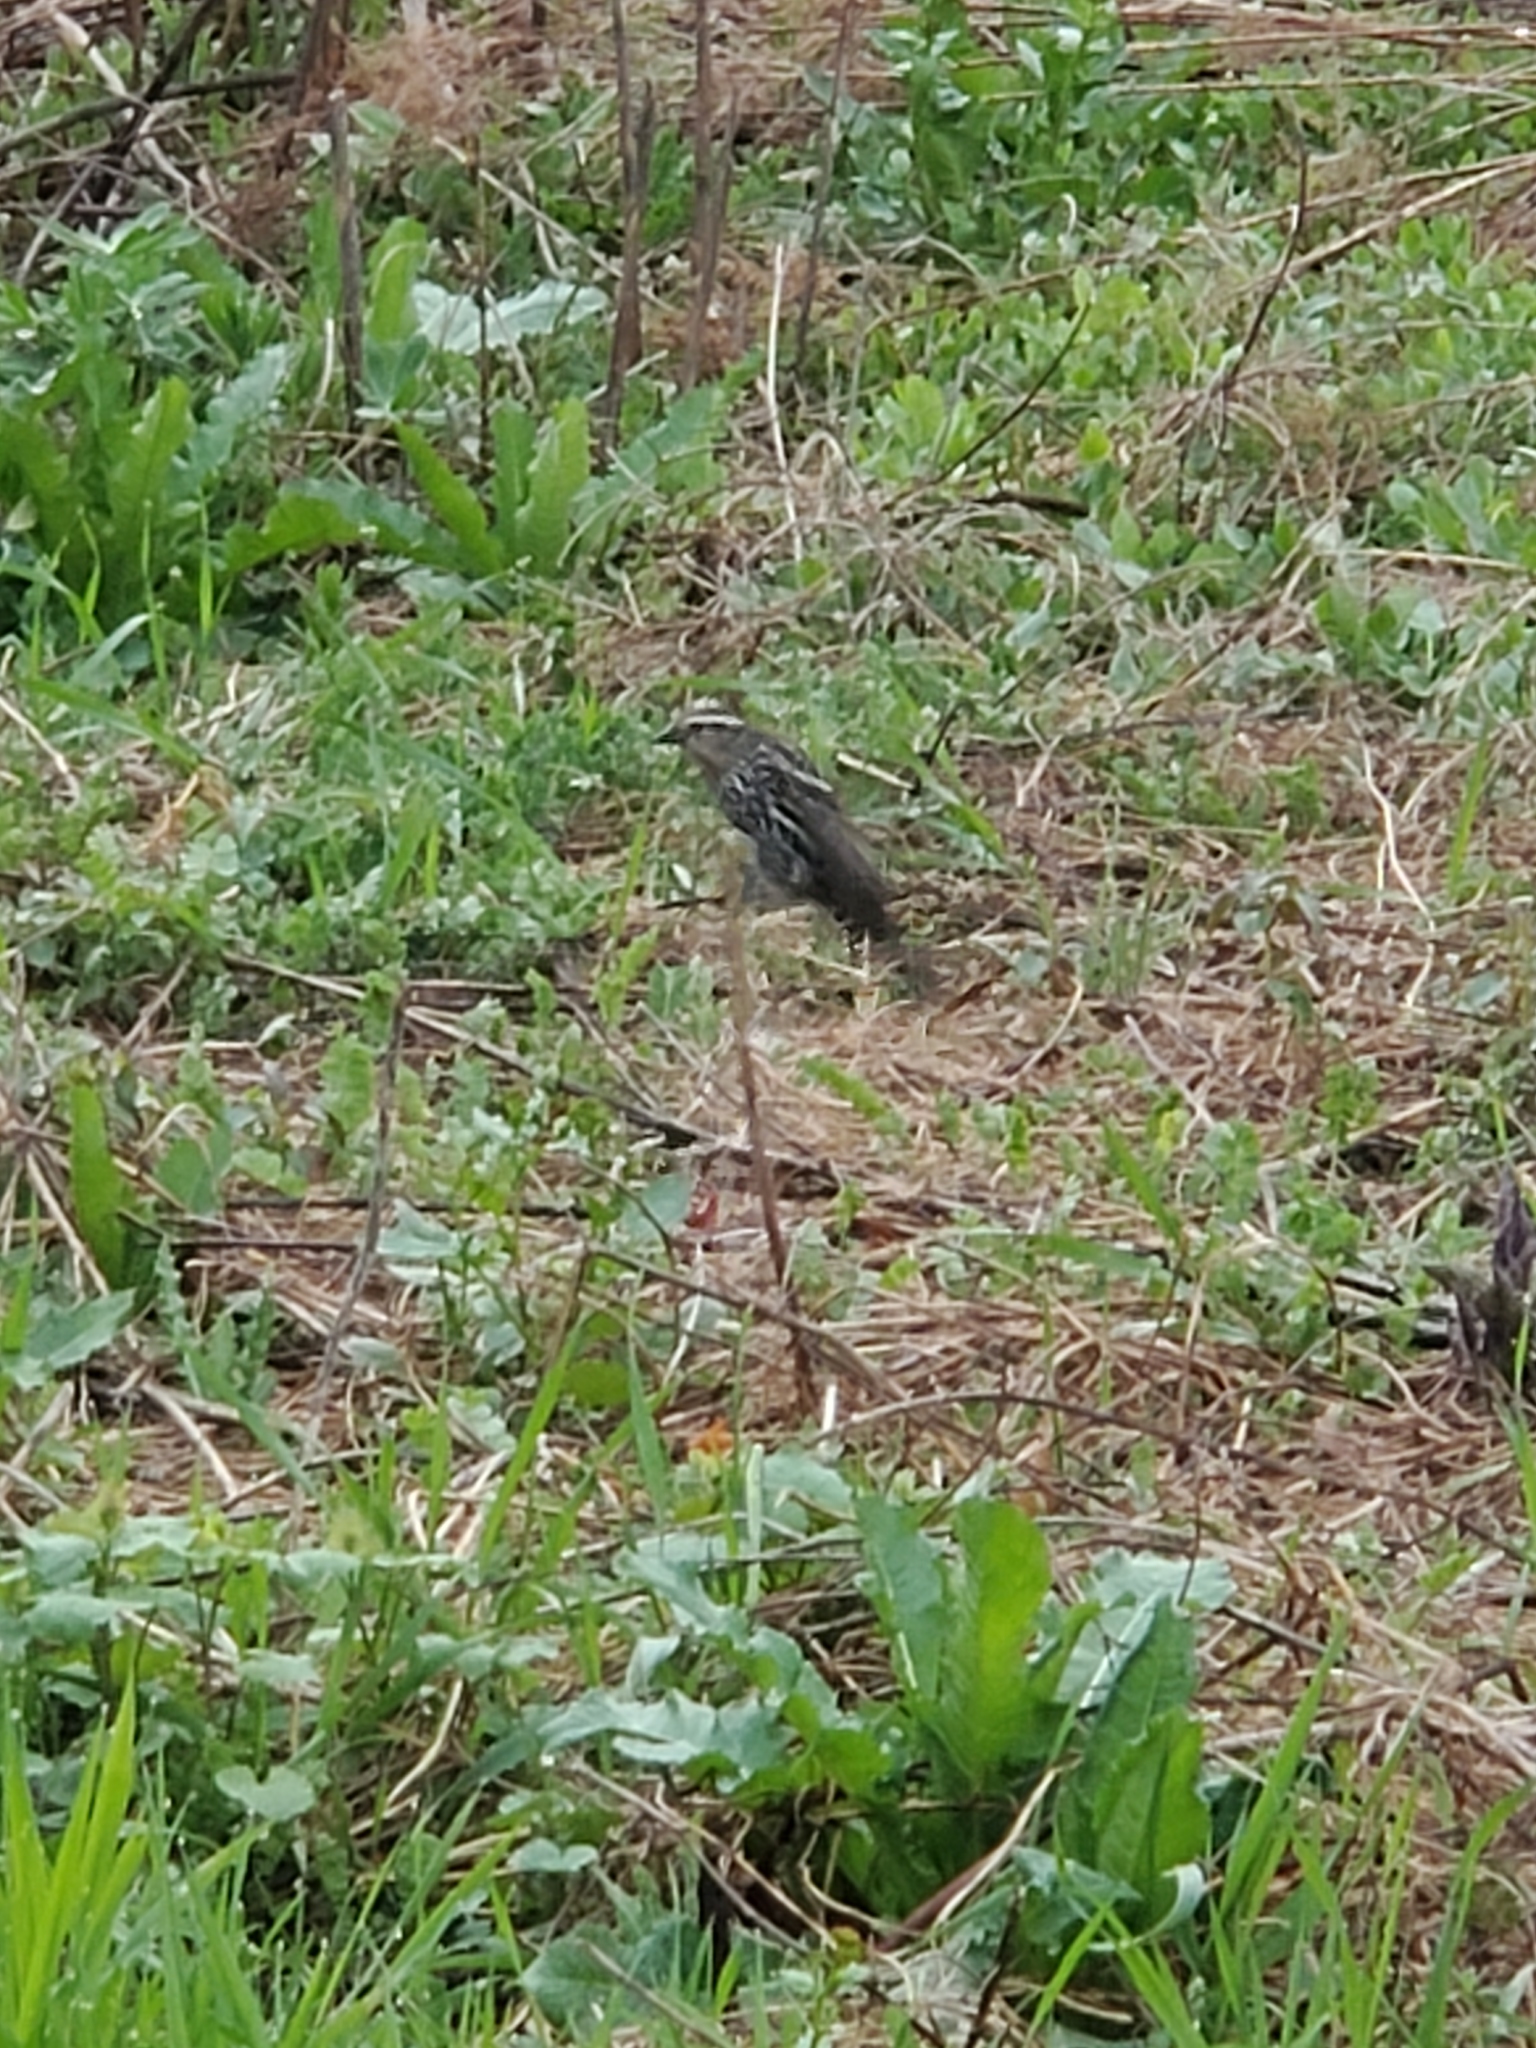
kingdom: Animalia
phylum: Chordata
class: Aves
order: Passeriformes
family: Icteridae
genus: Agelaius
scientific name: Agelaius phoeniceus
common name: Red-winged blackbird
